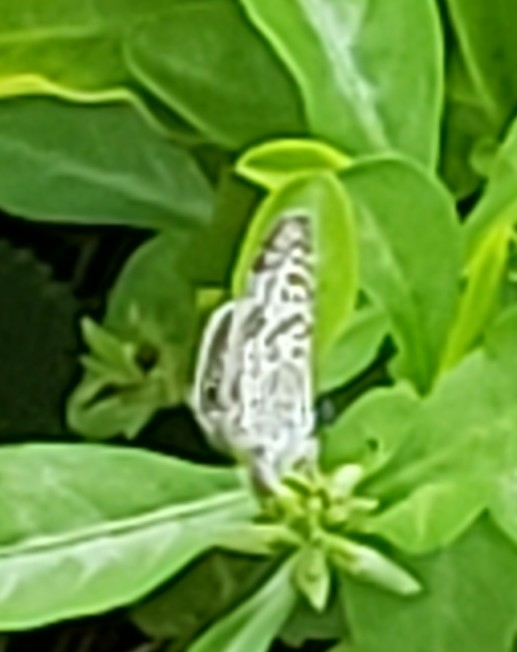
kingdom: Animalia
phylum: Arthropoda
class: Insecta
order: Lepidoptera
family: Lycaenidae
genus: Leptotes
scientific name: Leptotes cassius
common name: Cassius blue
